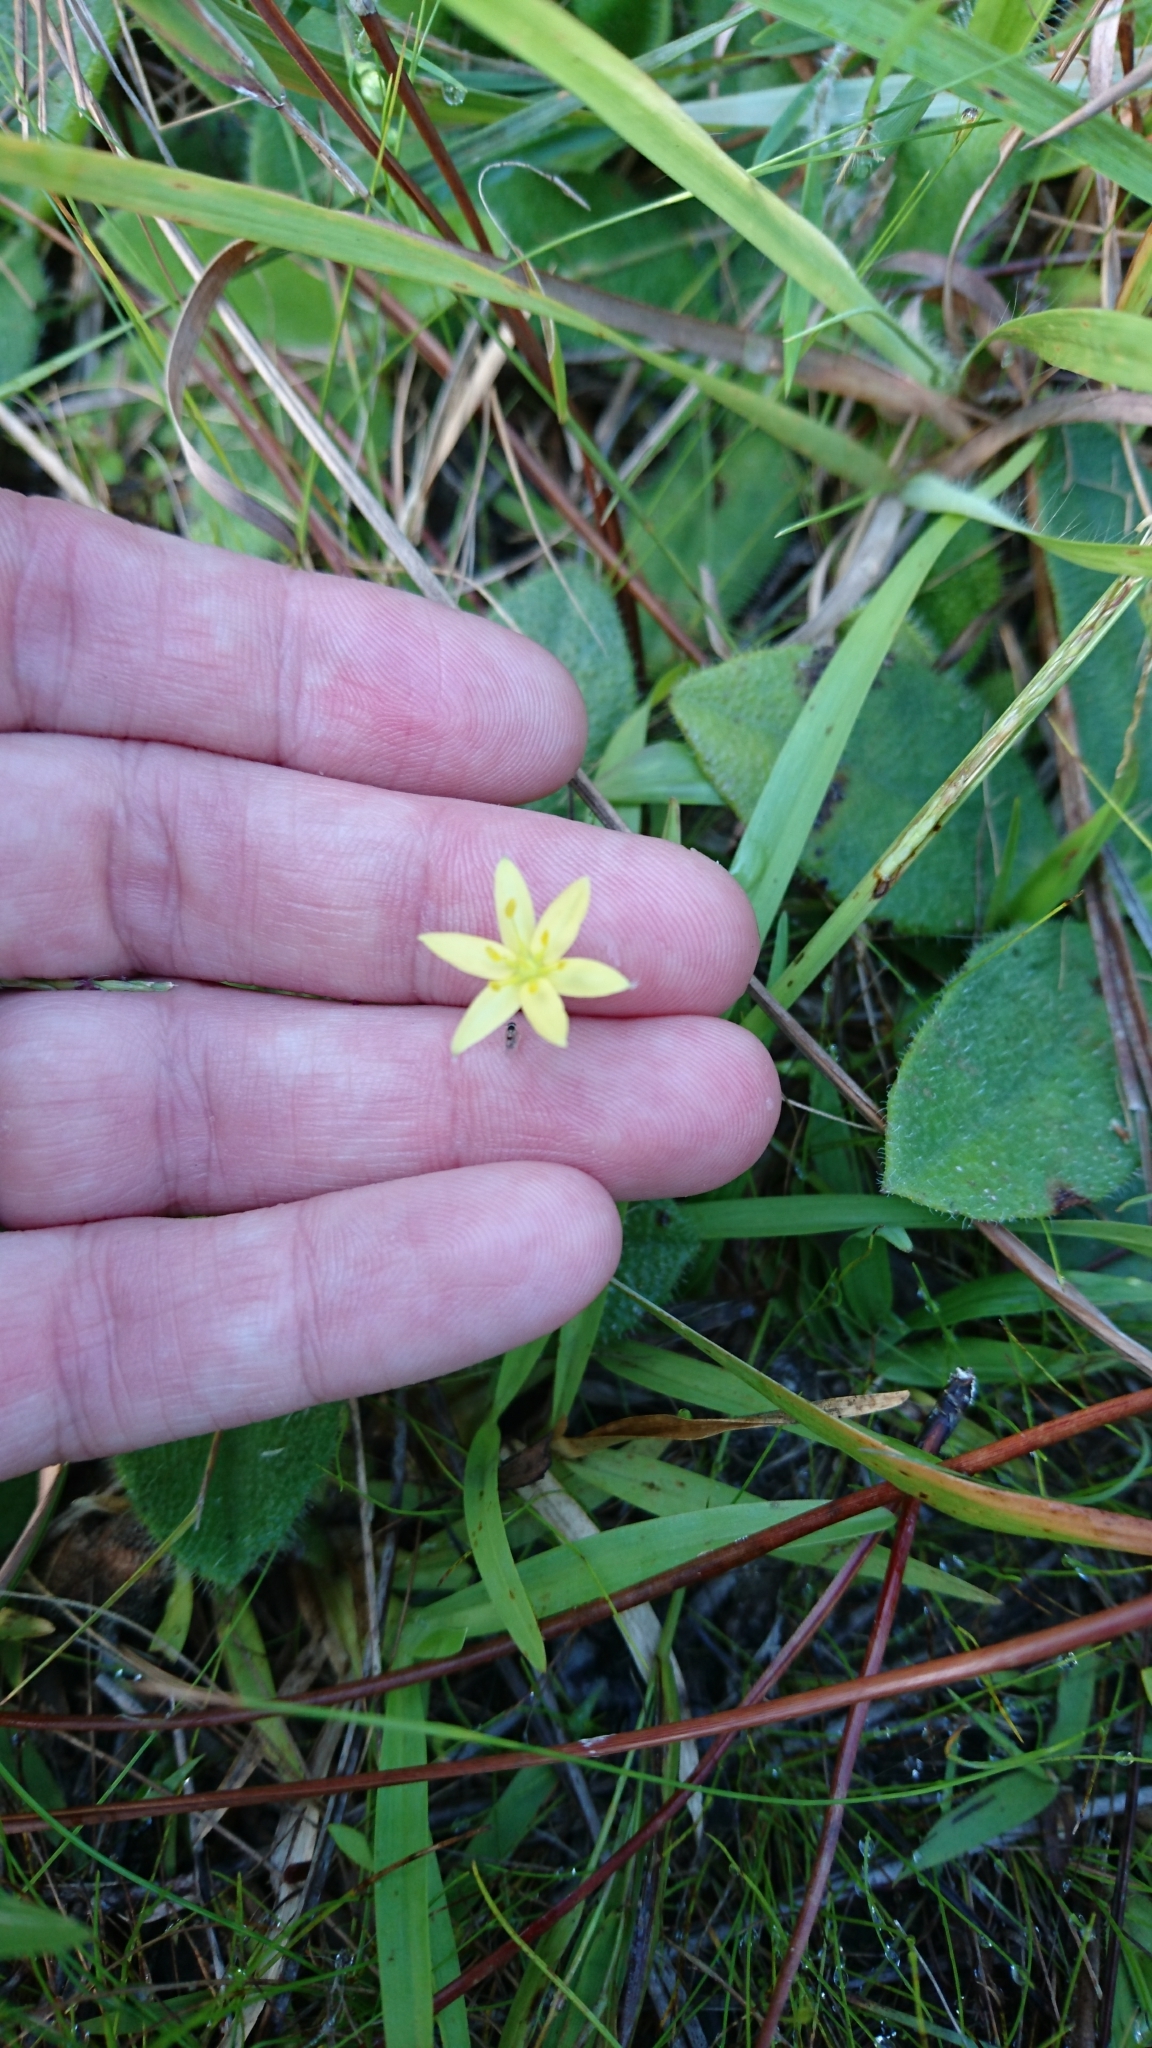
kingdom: Plantae
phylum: Tracheophyta
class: Liliopsida
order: Asparagales
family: Hypoxidaceae
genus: Hypoxis
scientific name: Hypoxis hirsuta
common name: Common goldstar
